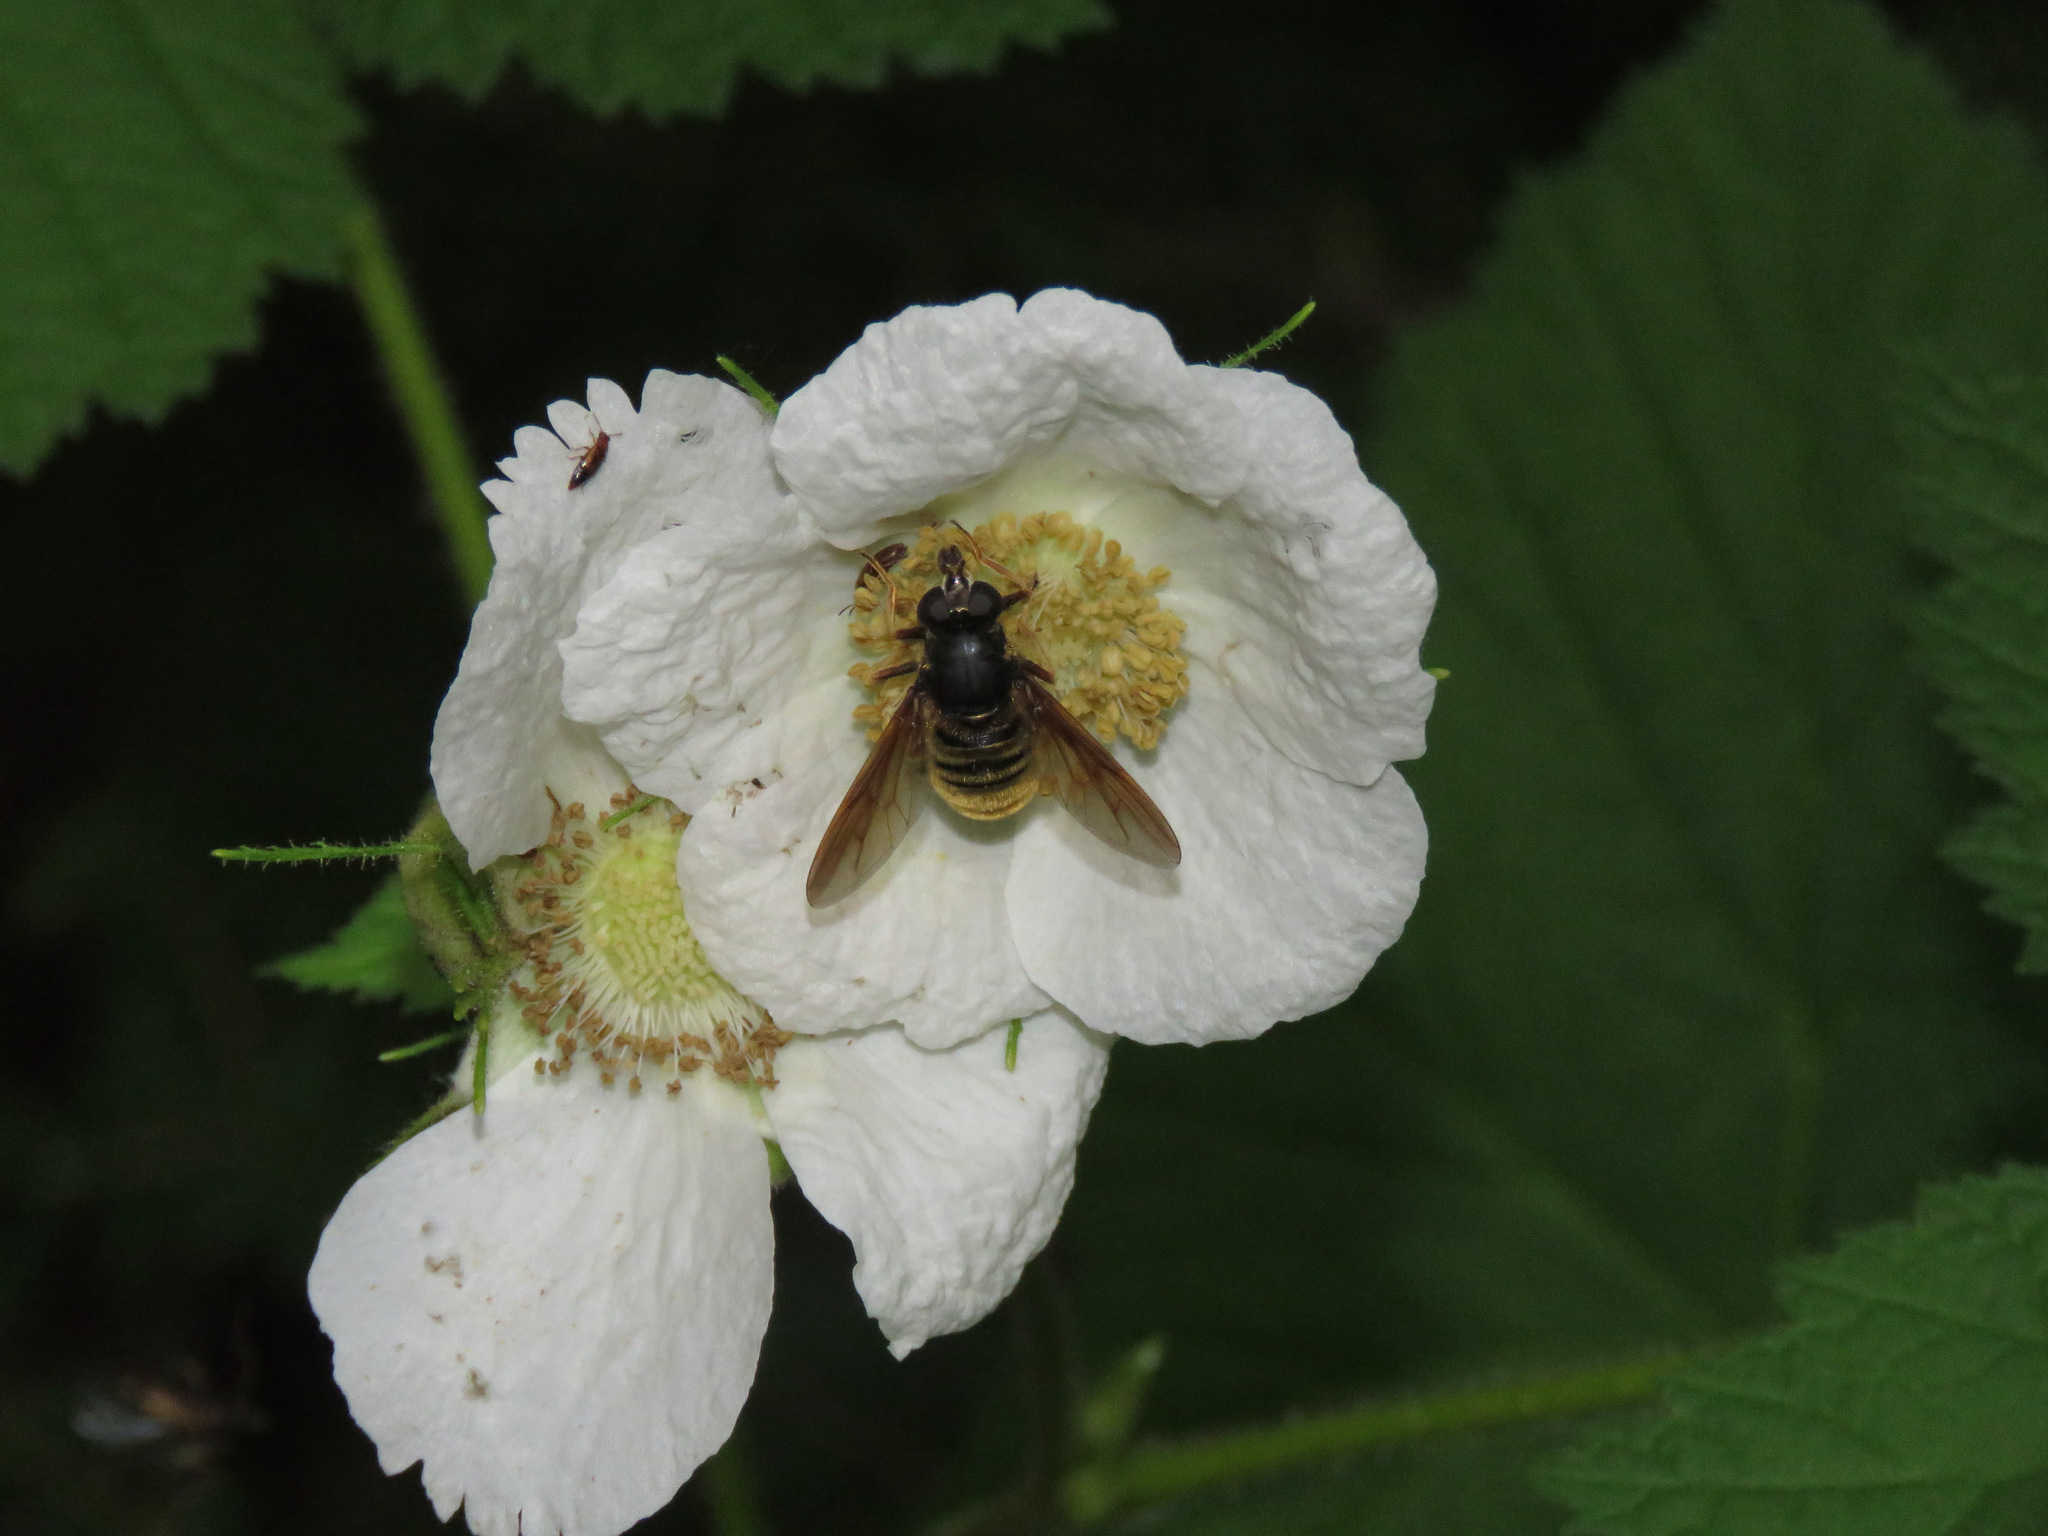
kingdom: Animalia
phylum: Arthropoda
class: Insecta
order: Diptera
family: Syrphidae
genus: Hadromyia
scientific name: Hadromyia aldrichi
